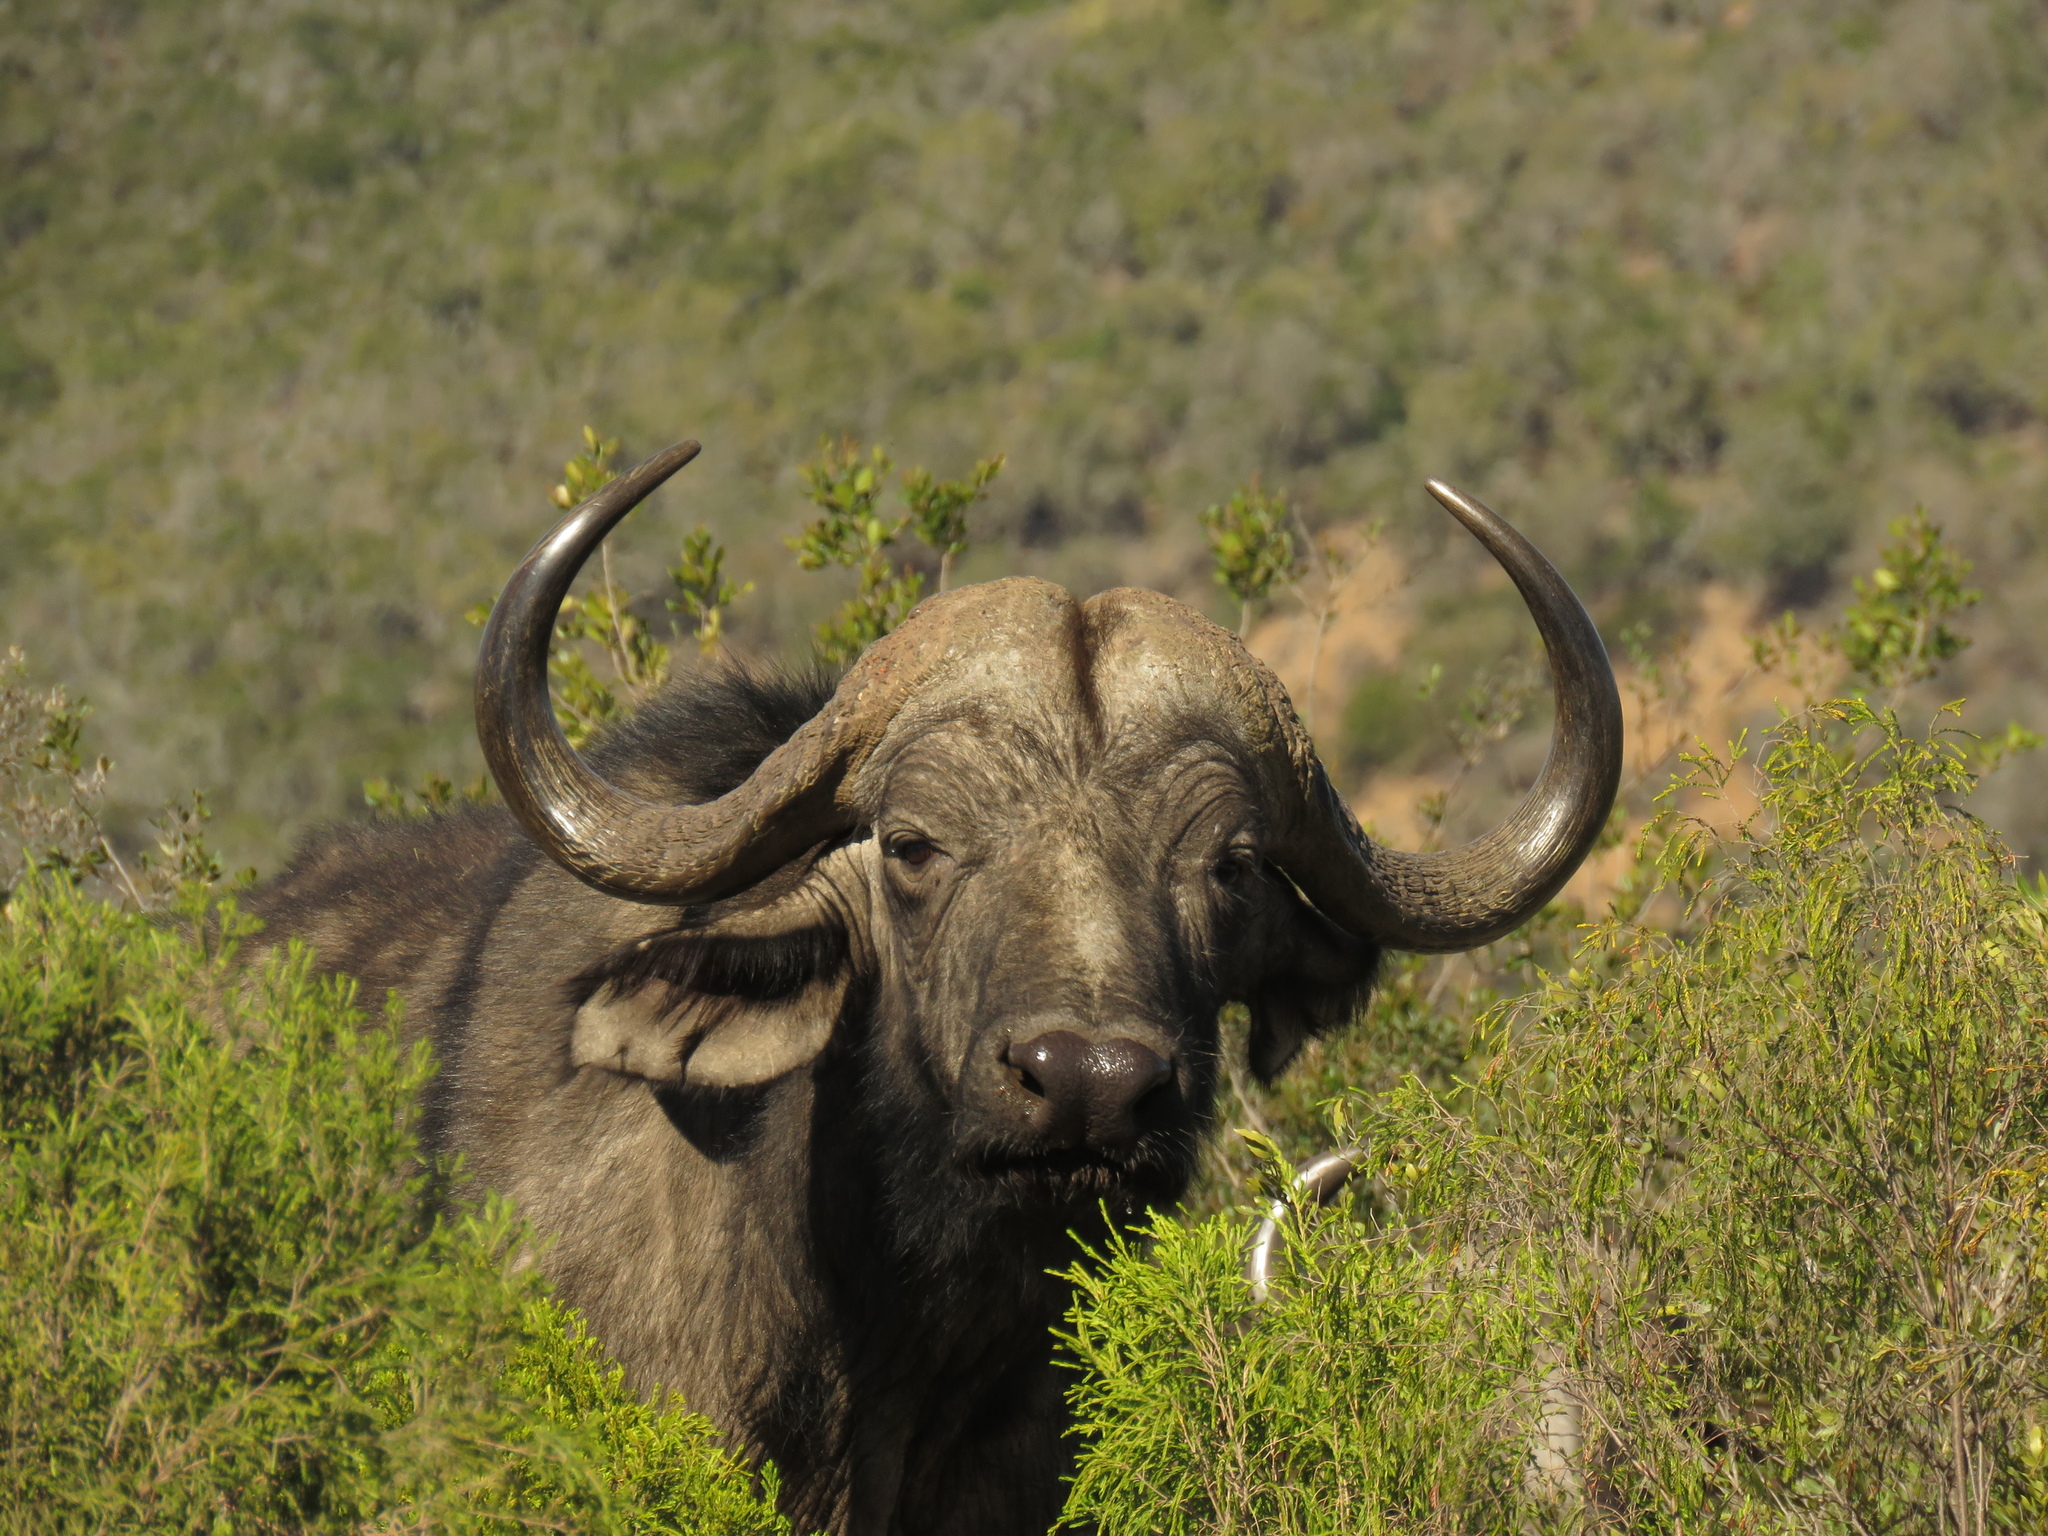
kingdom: Animalia
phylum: Chordata
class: Mammalia
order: Artiodactyla
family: Bovidae
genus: Syncerus
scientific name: Syncerus caffer
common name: African buffalo
